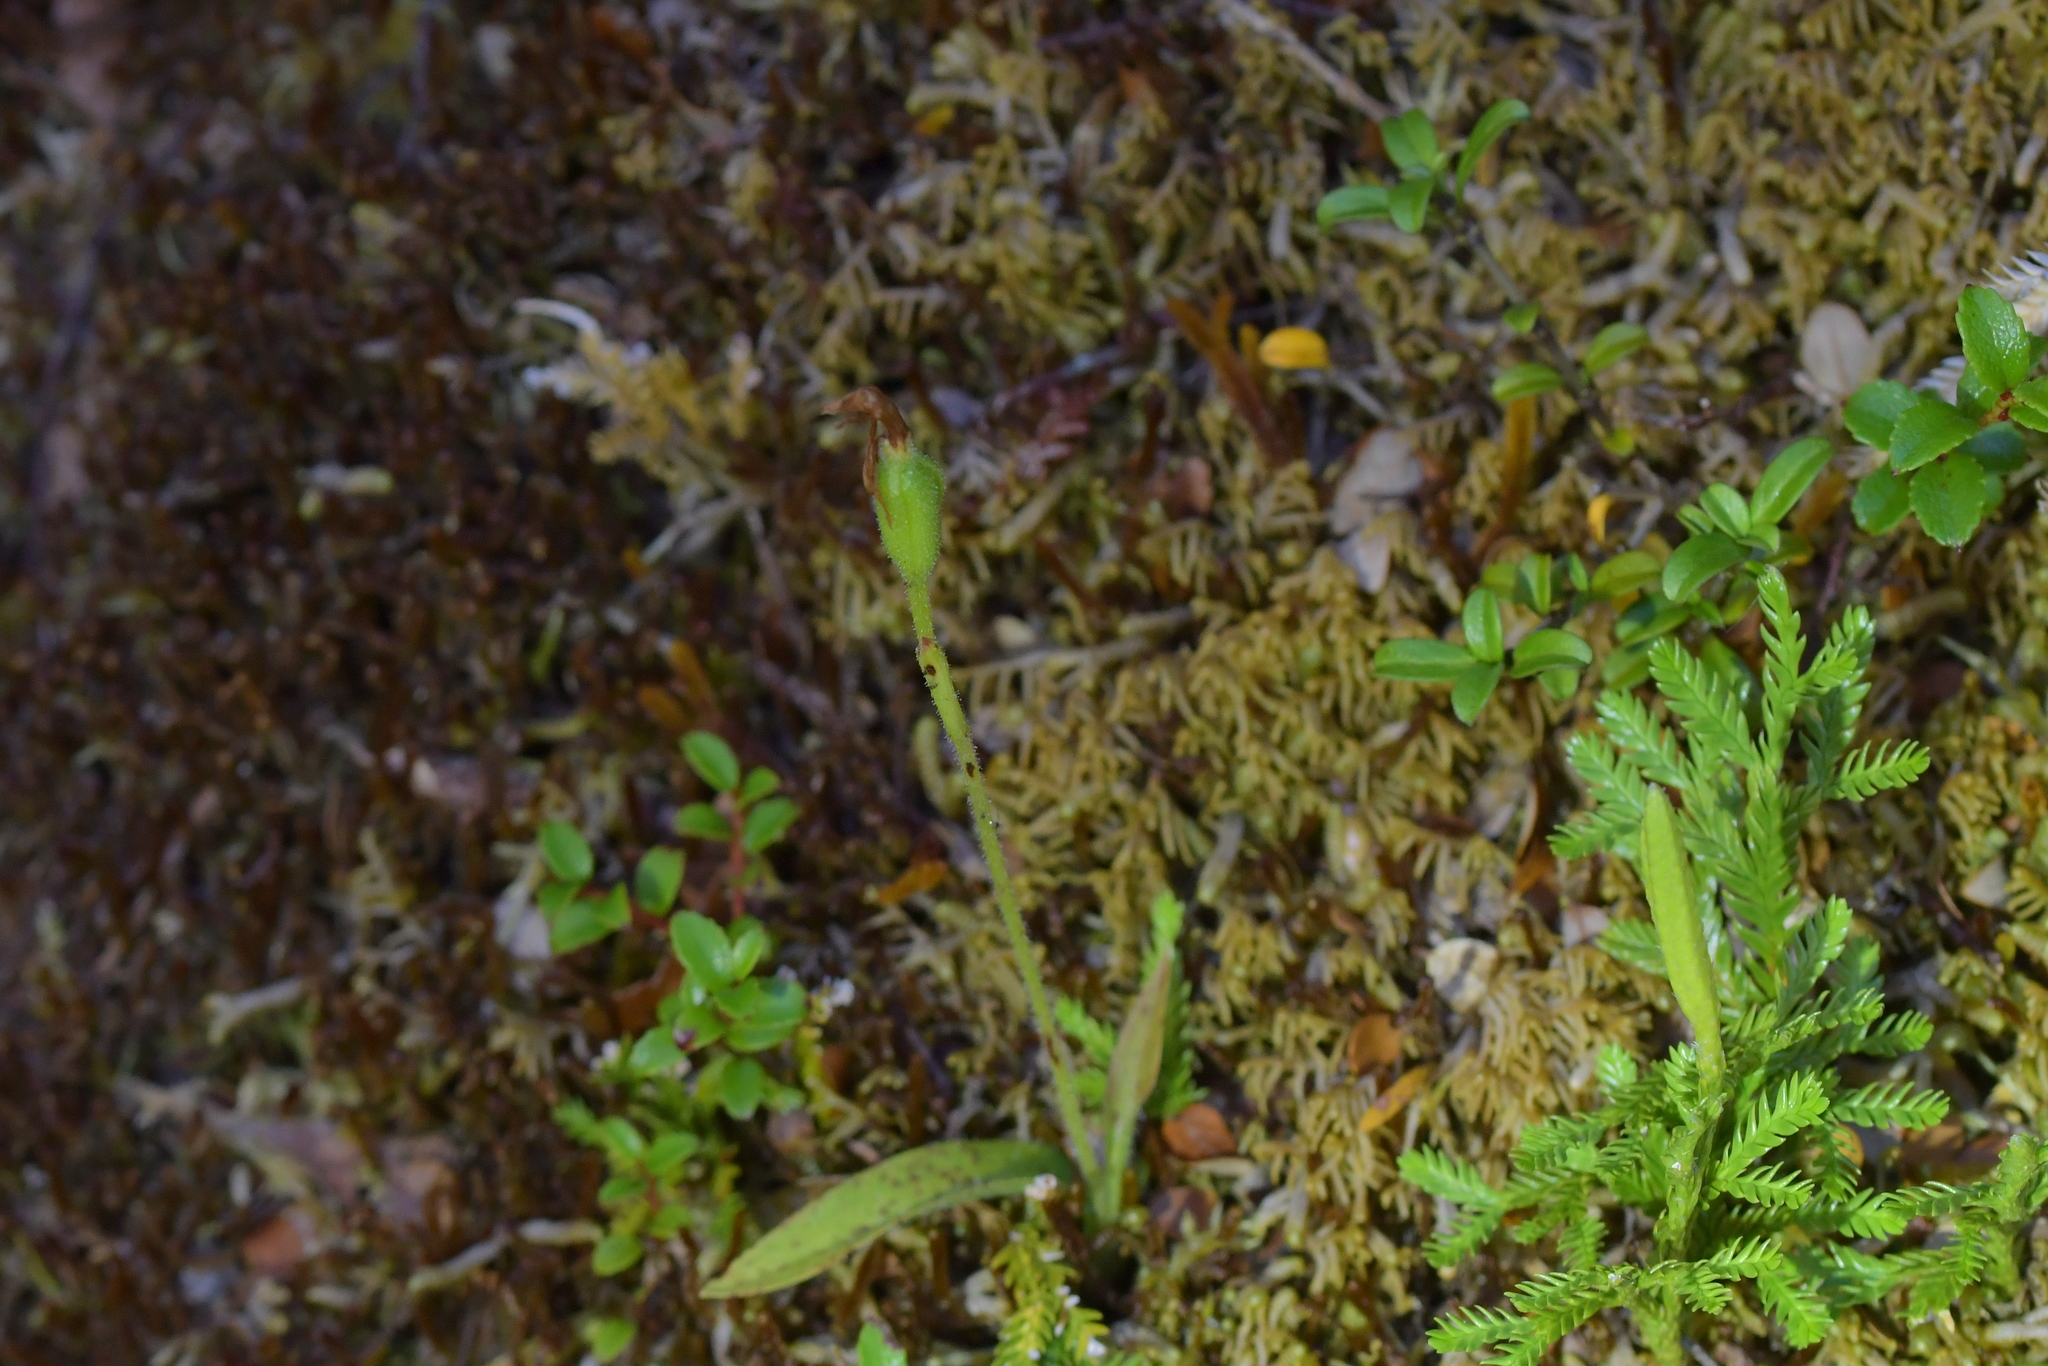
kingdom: Plantae
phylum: Tracheophyta
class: Liliopsida
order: Asparagales
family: Orchidaceae
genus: Aporostylis
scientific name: Aporostylis bifolia
